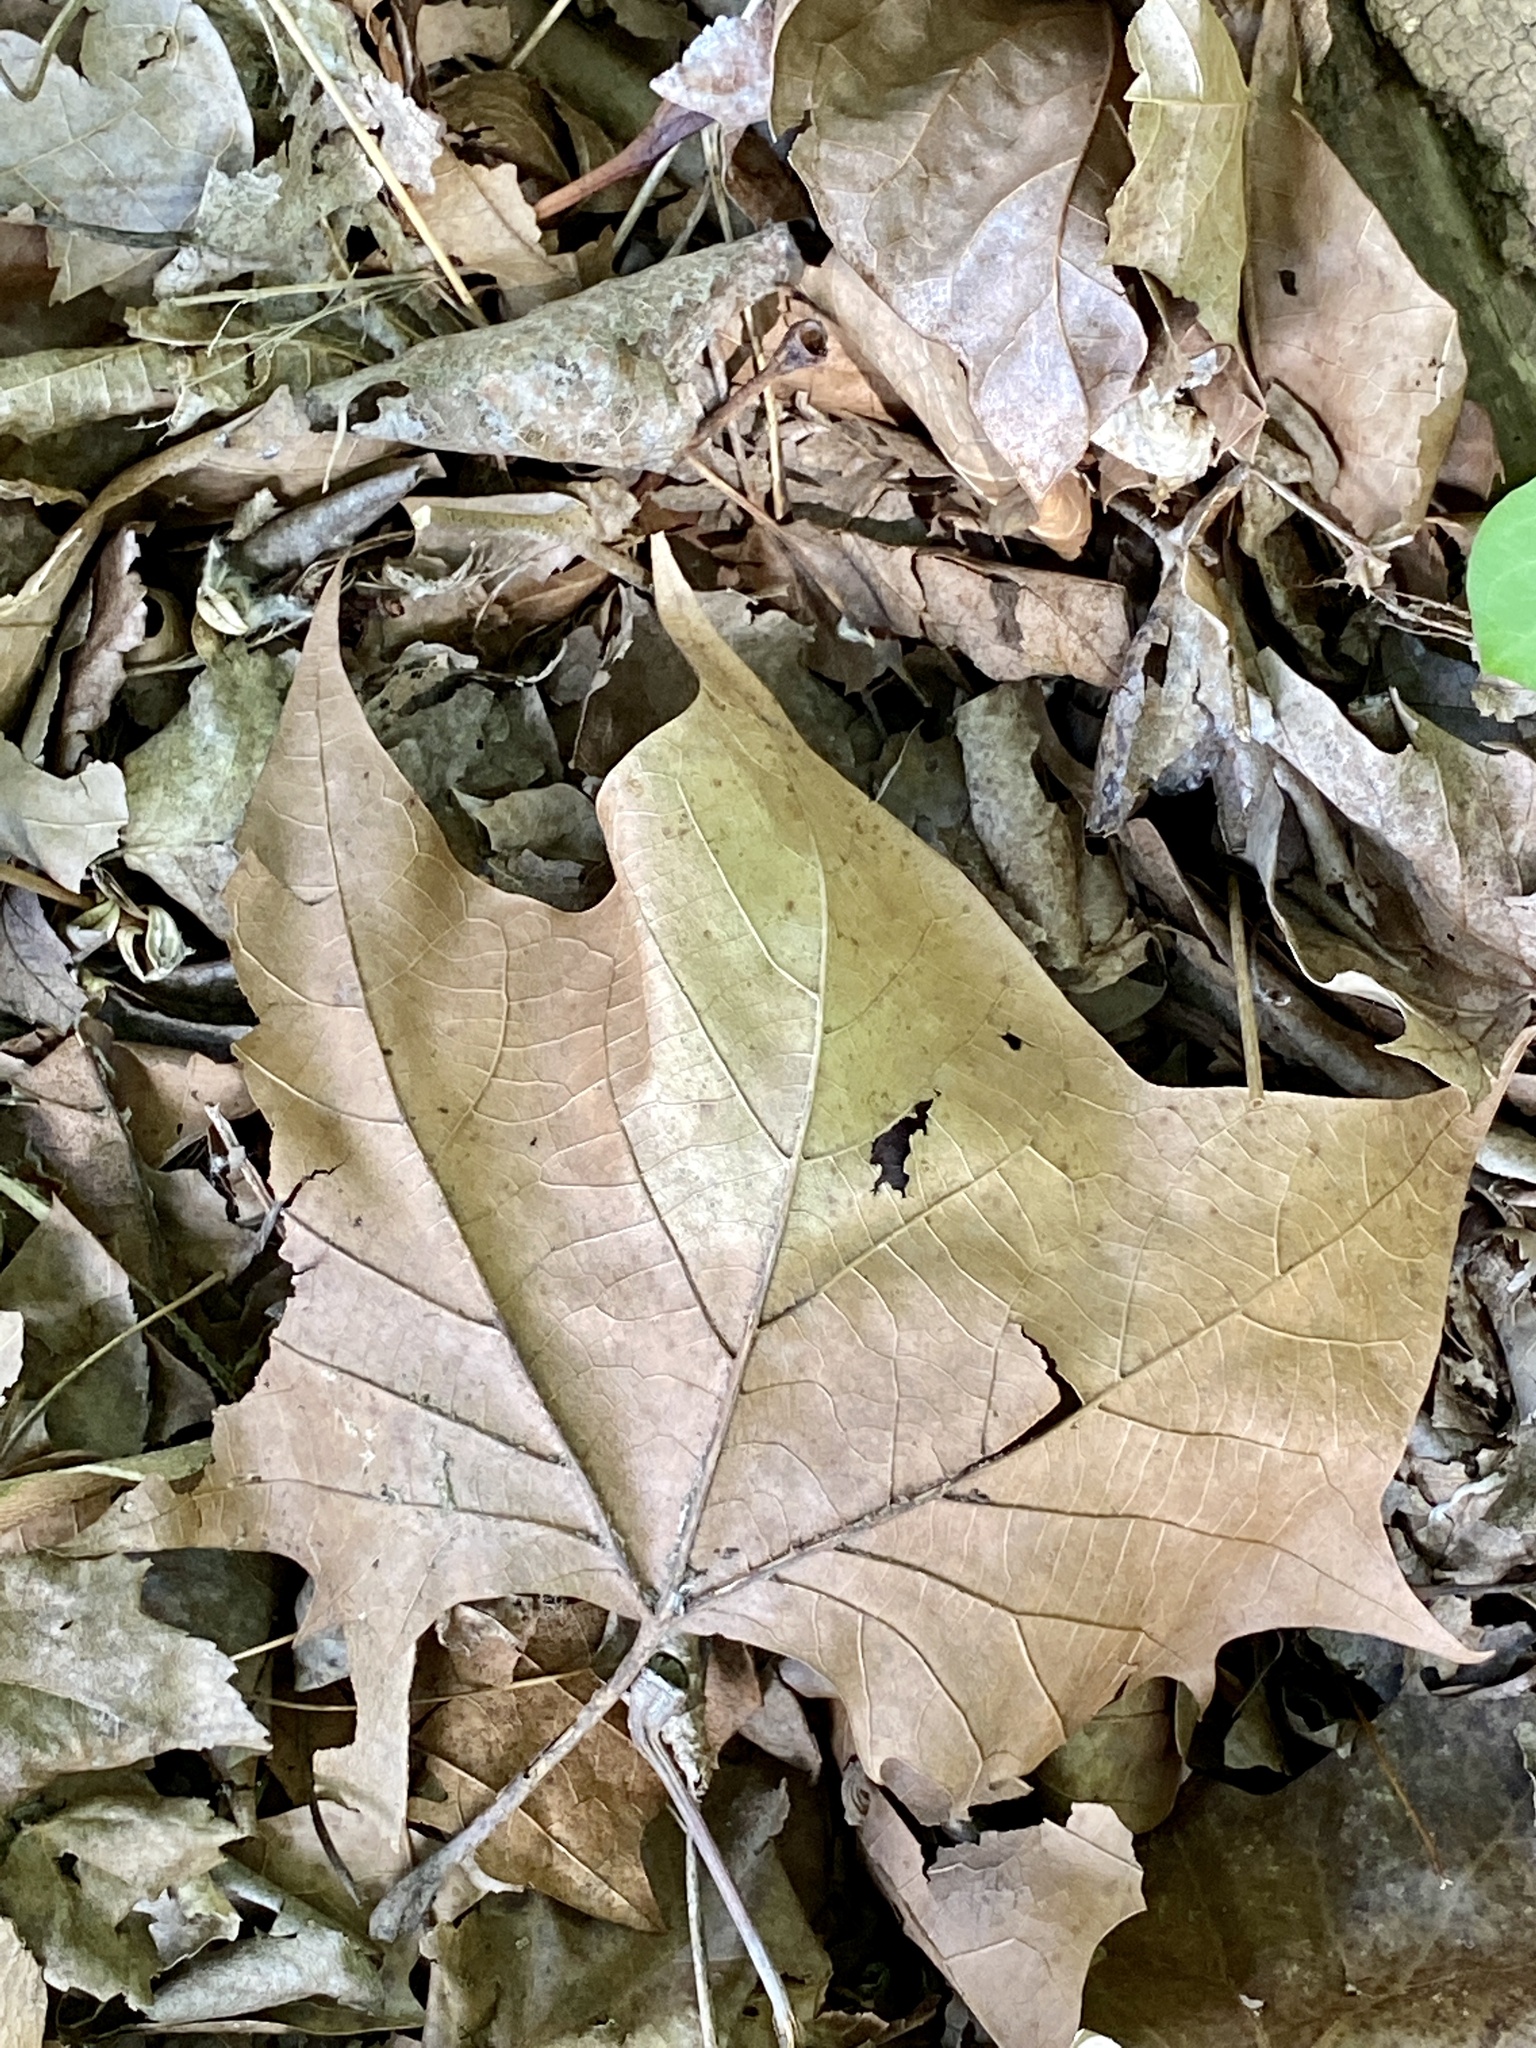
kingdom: Plantae
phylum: Tracheophyta
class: Magnoliopsida
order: Proteales
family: Platanaceae
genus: Platanus
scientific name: Platanus occidentalis
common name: American sycamore
